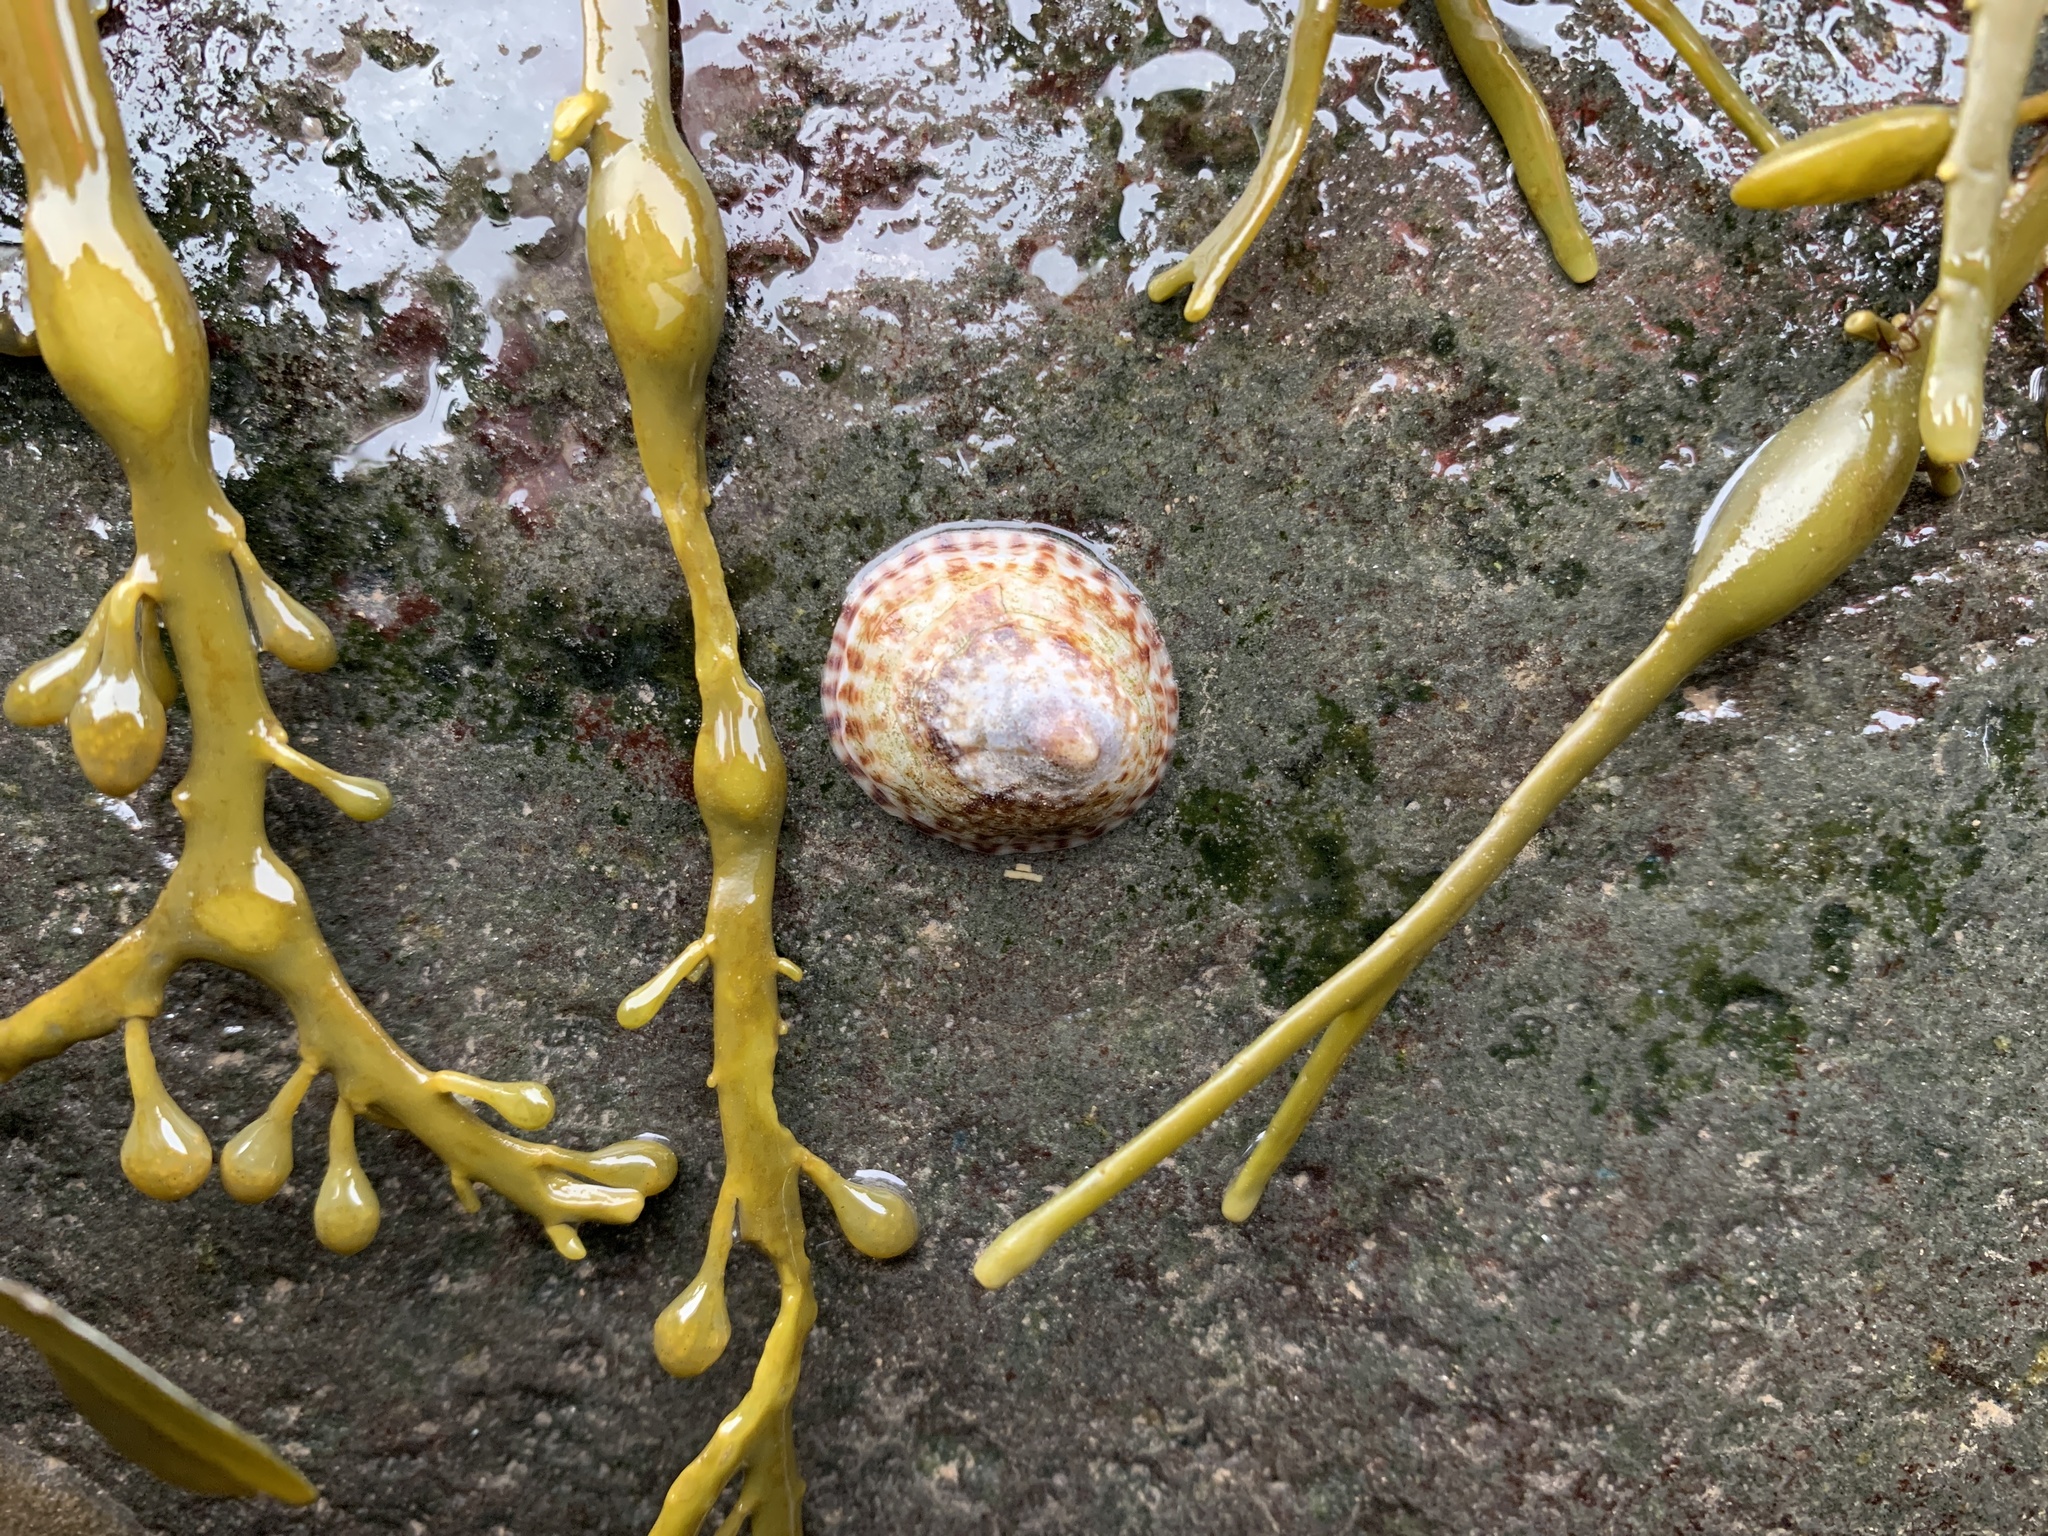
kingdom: Animalia
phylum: Mollusca
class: Gastropoda
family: Lottiidae
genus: Testudinalia
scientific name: Testudinalia testudinalis
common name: Common tortoiseshell limpet
